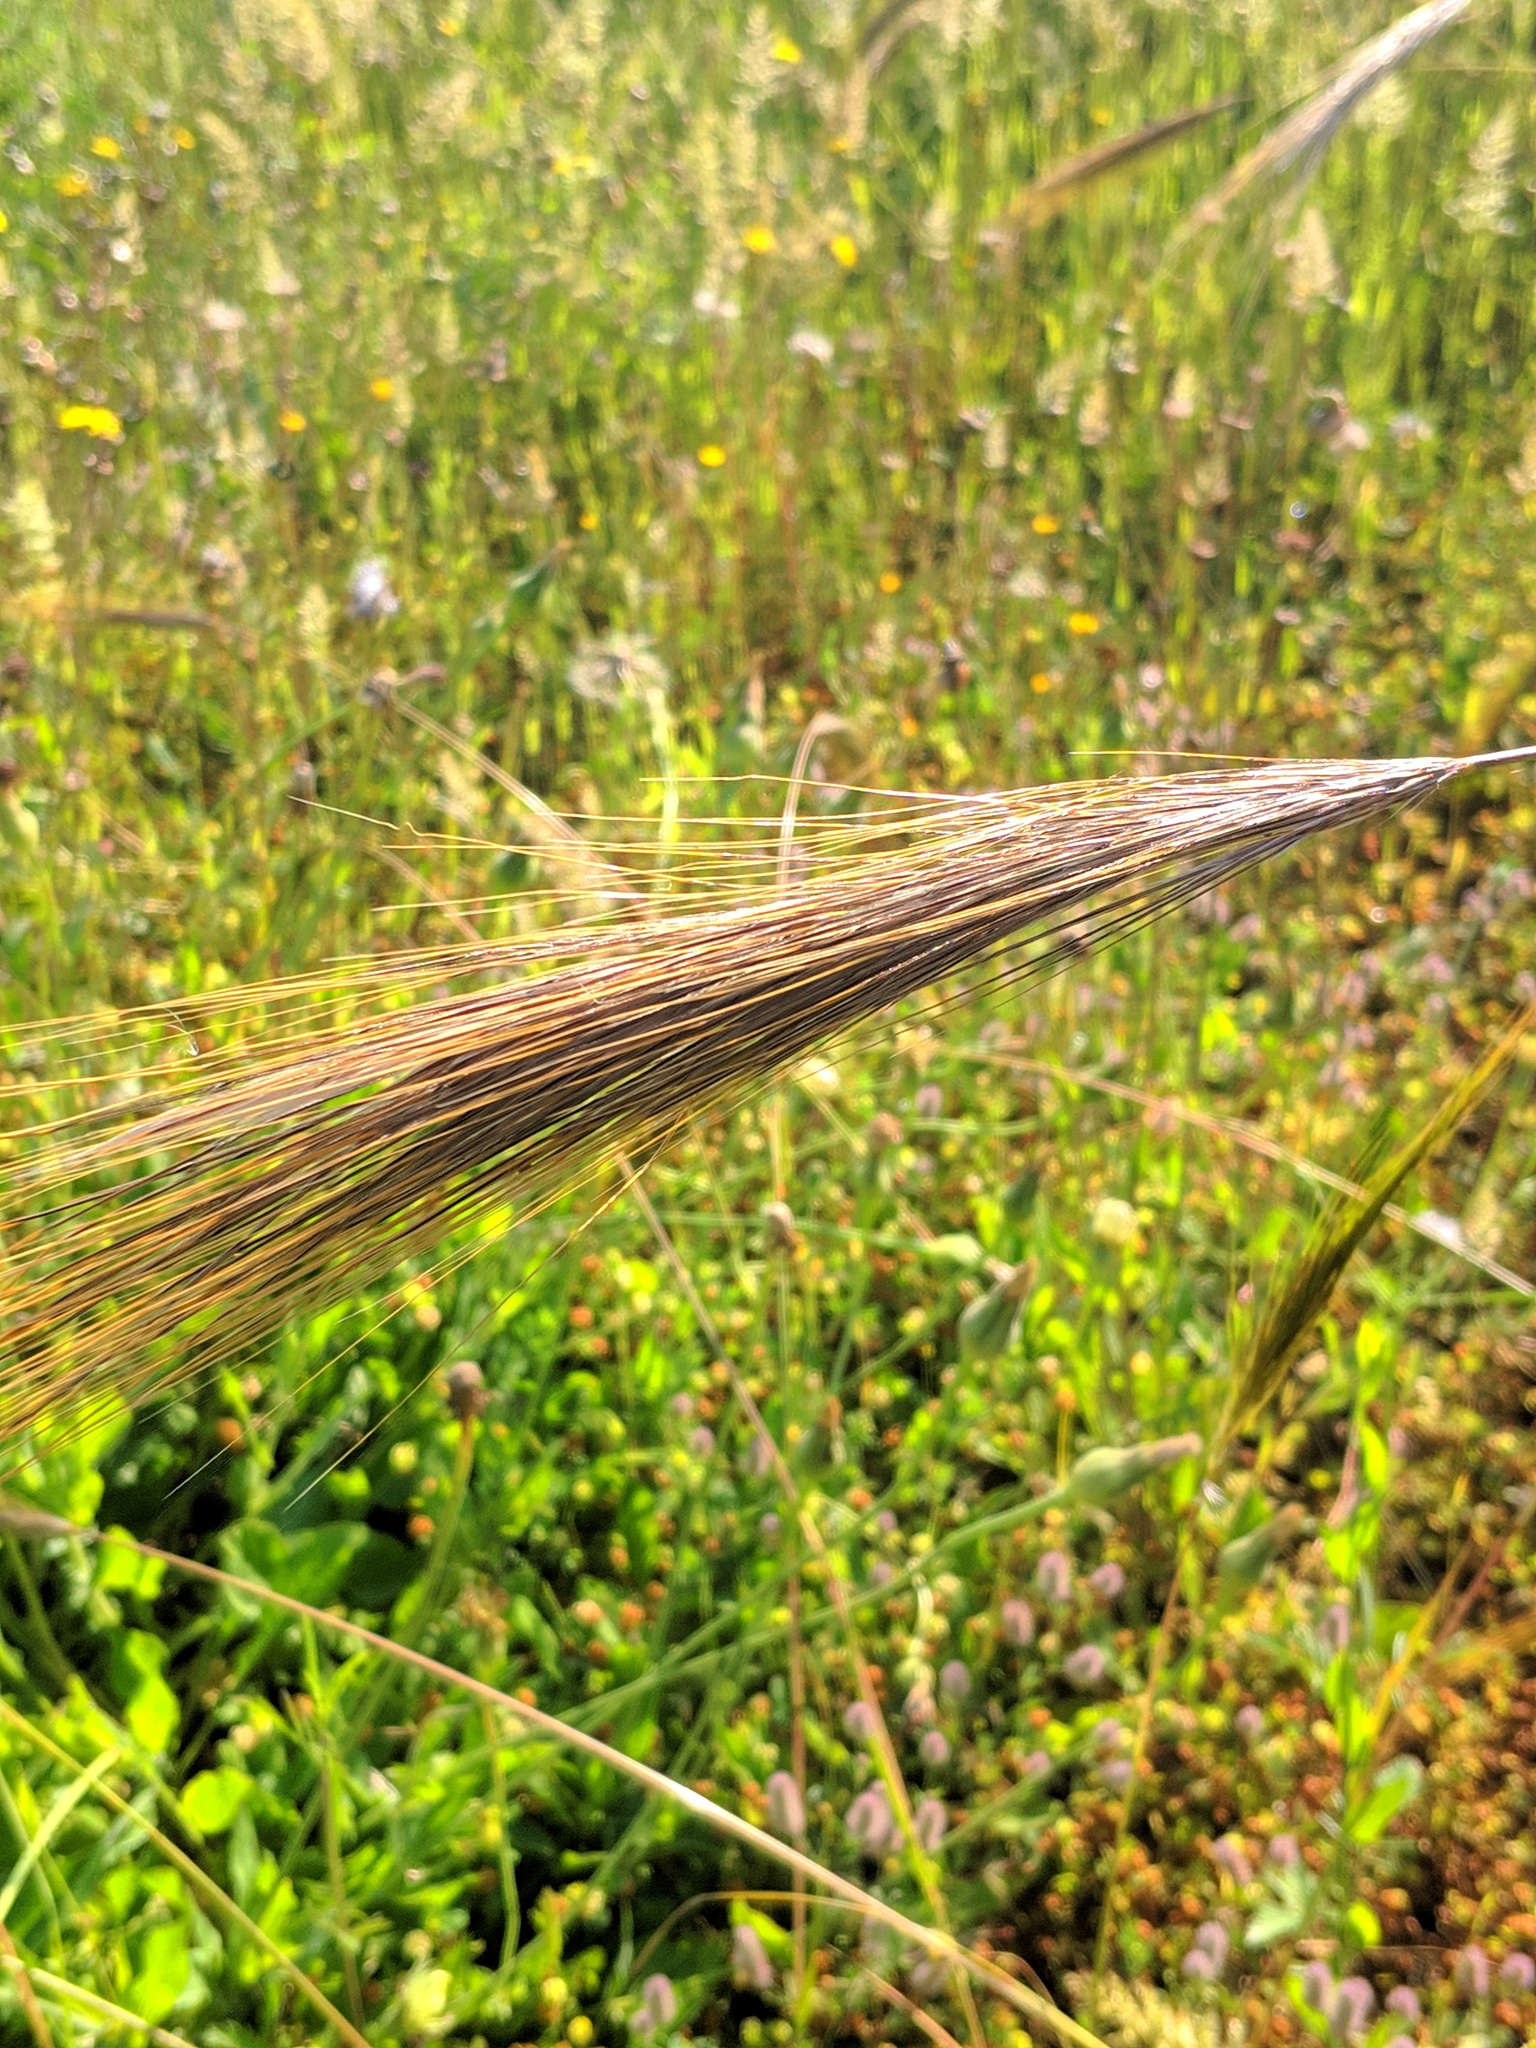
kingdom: Plantae
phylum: Tracheophyta
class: Liliopsida
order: Poales
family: Poaceae
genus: Stipellula
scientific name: Stipellula capensis
